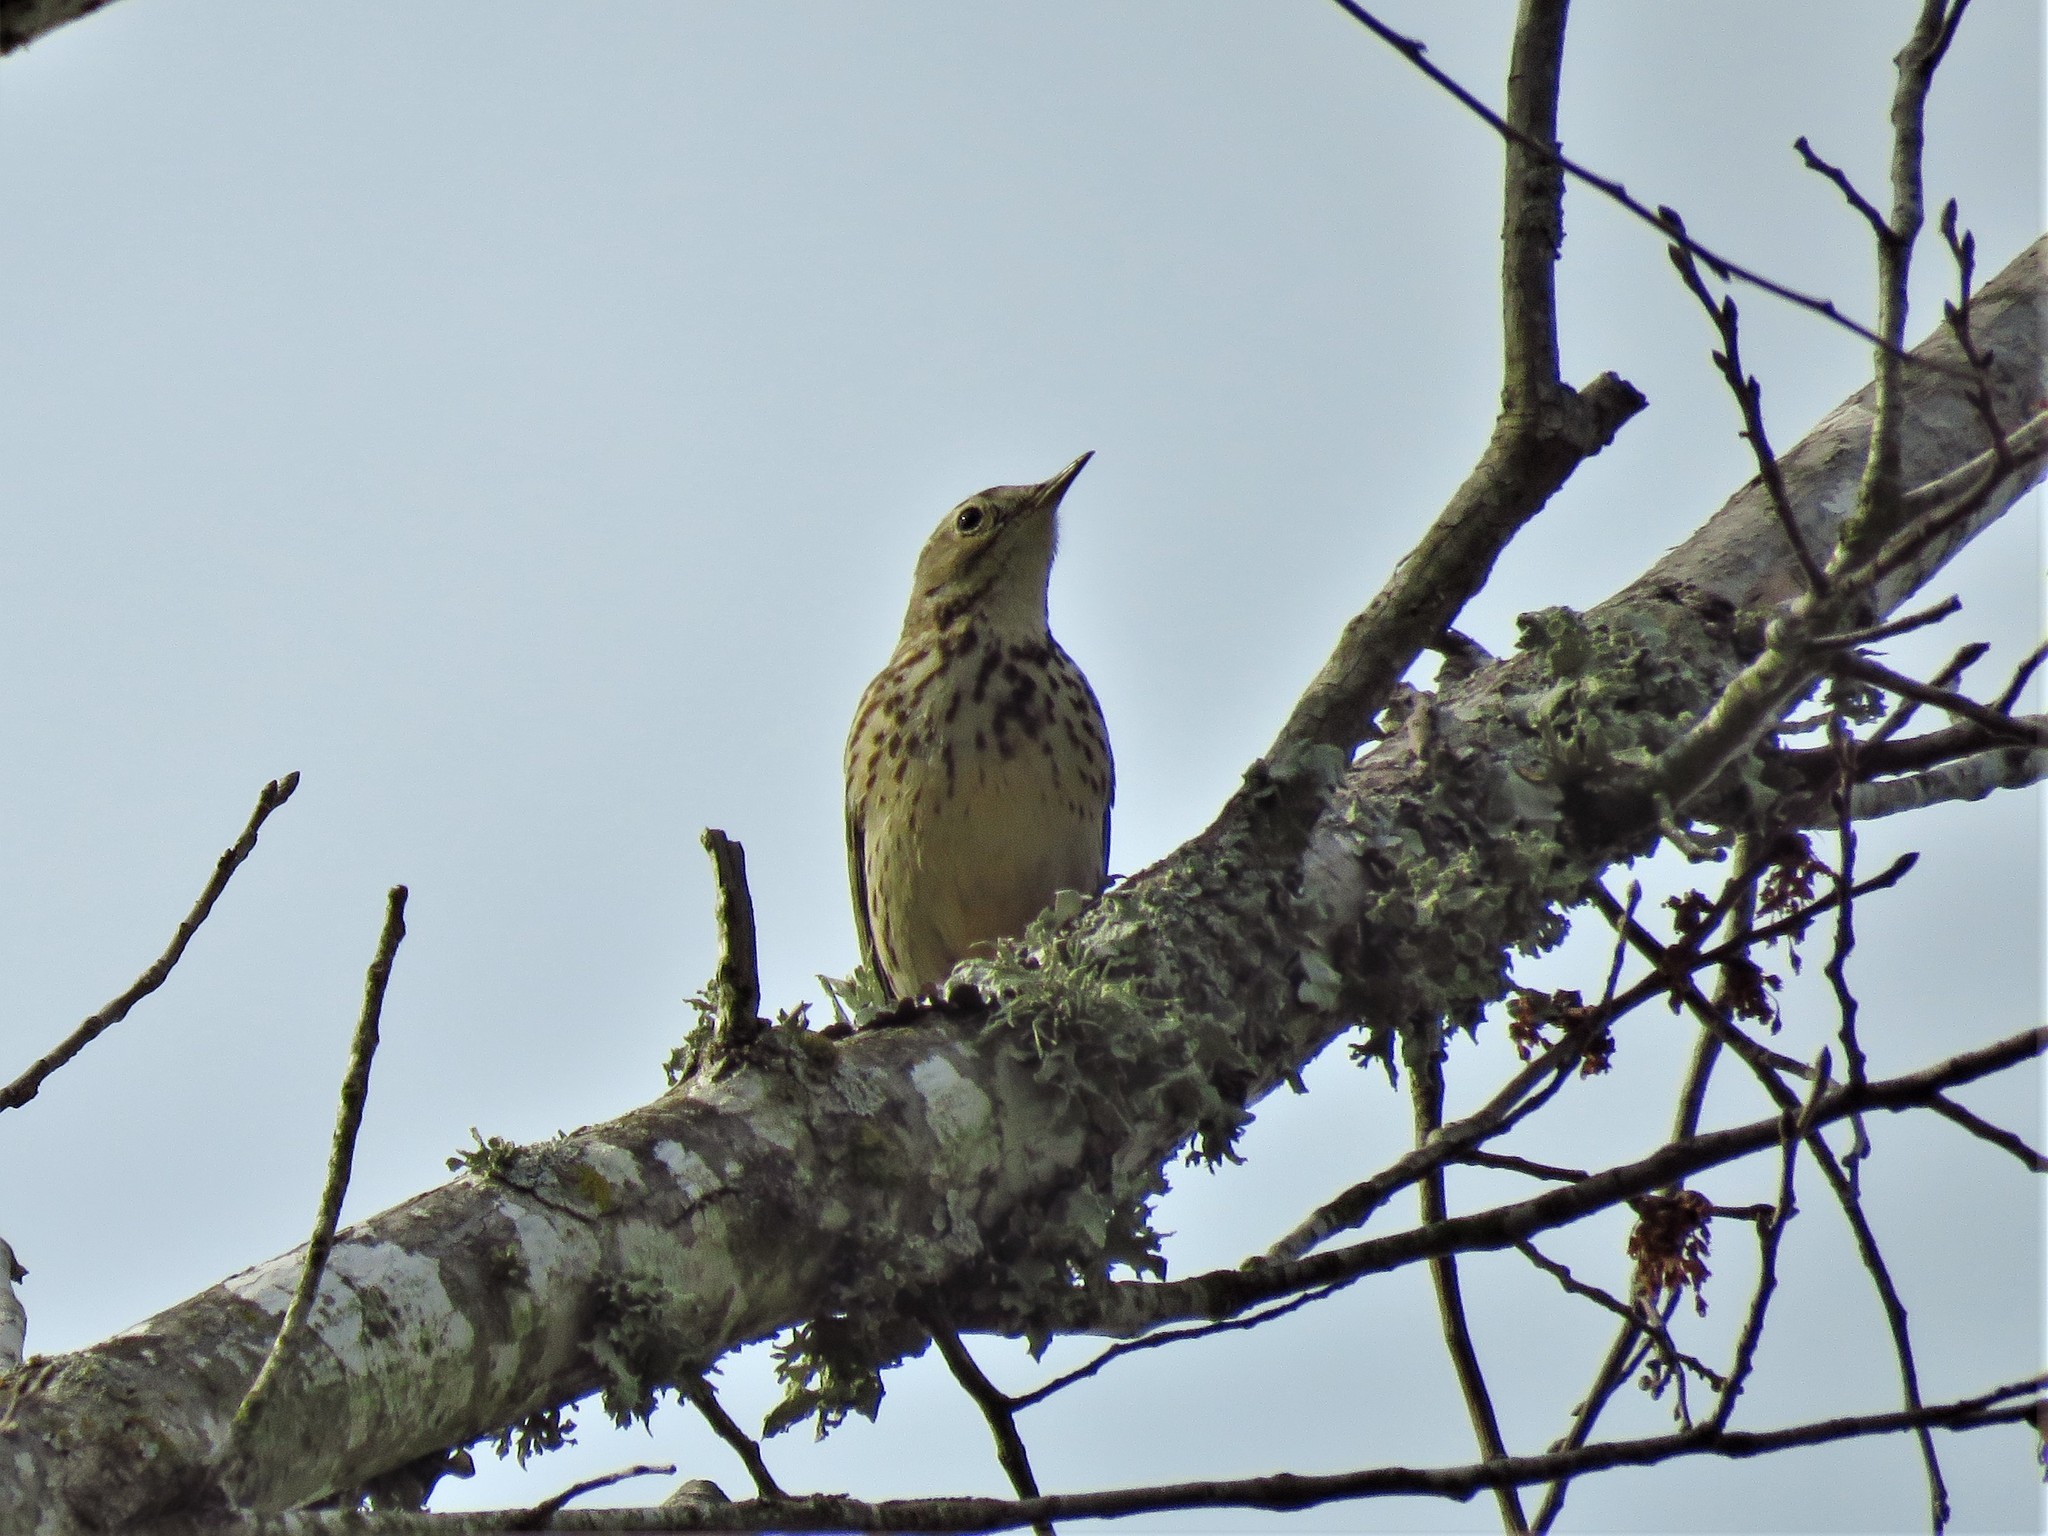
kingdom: Animalia
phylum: Chordata
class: Aves
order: Passeriformes
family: Motacillidae
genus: Anthus
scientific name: Anthus rubescens
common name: Buff-bellied pipit
